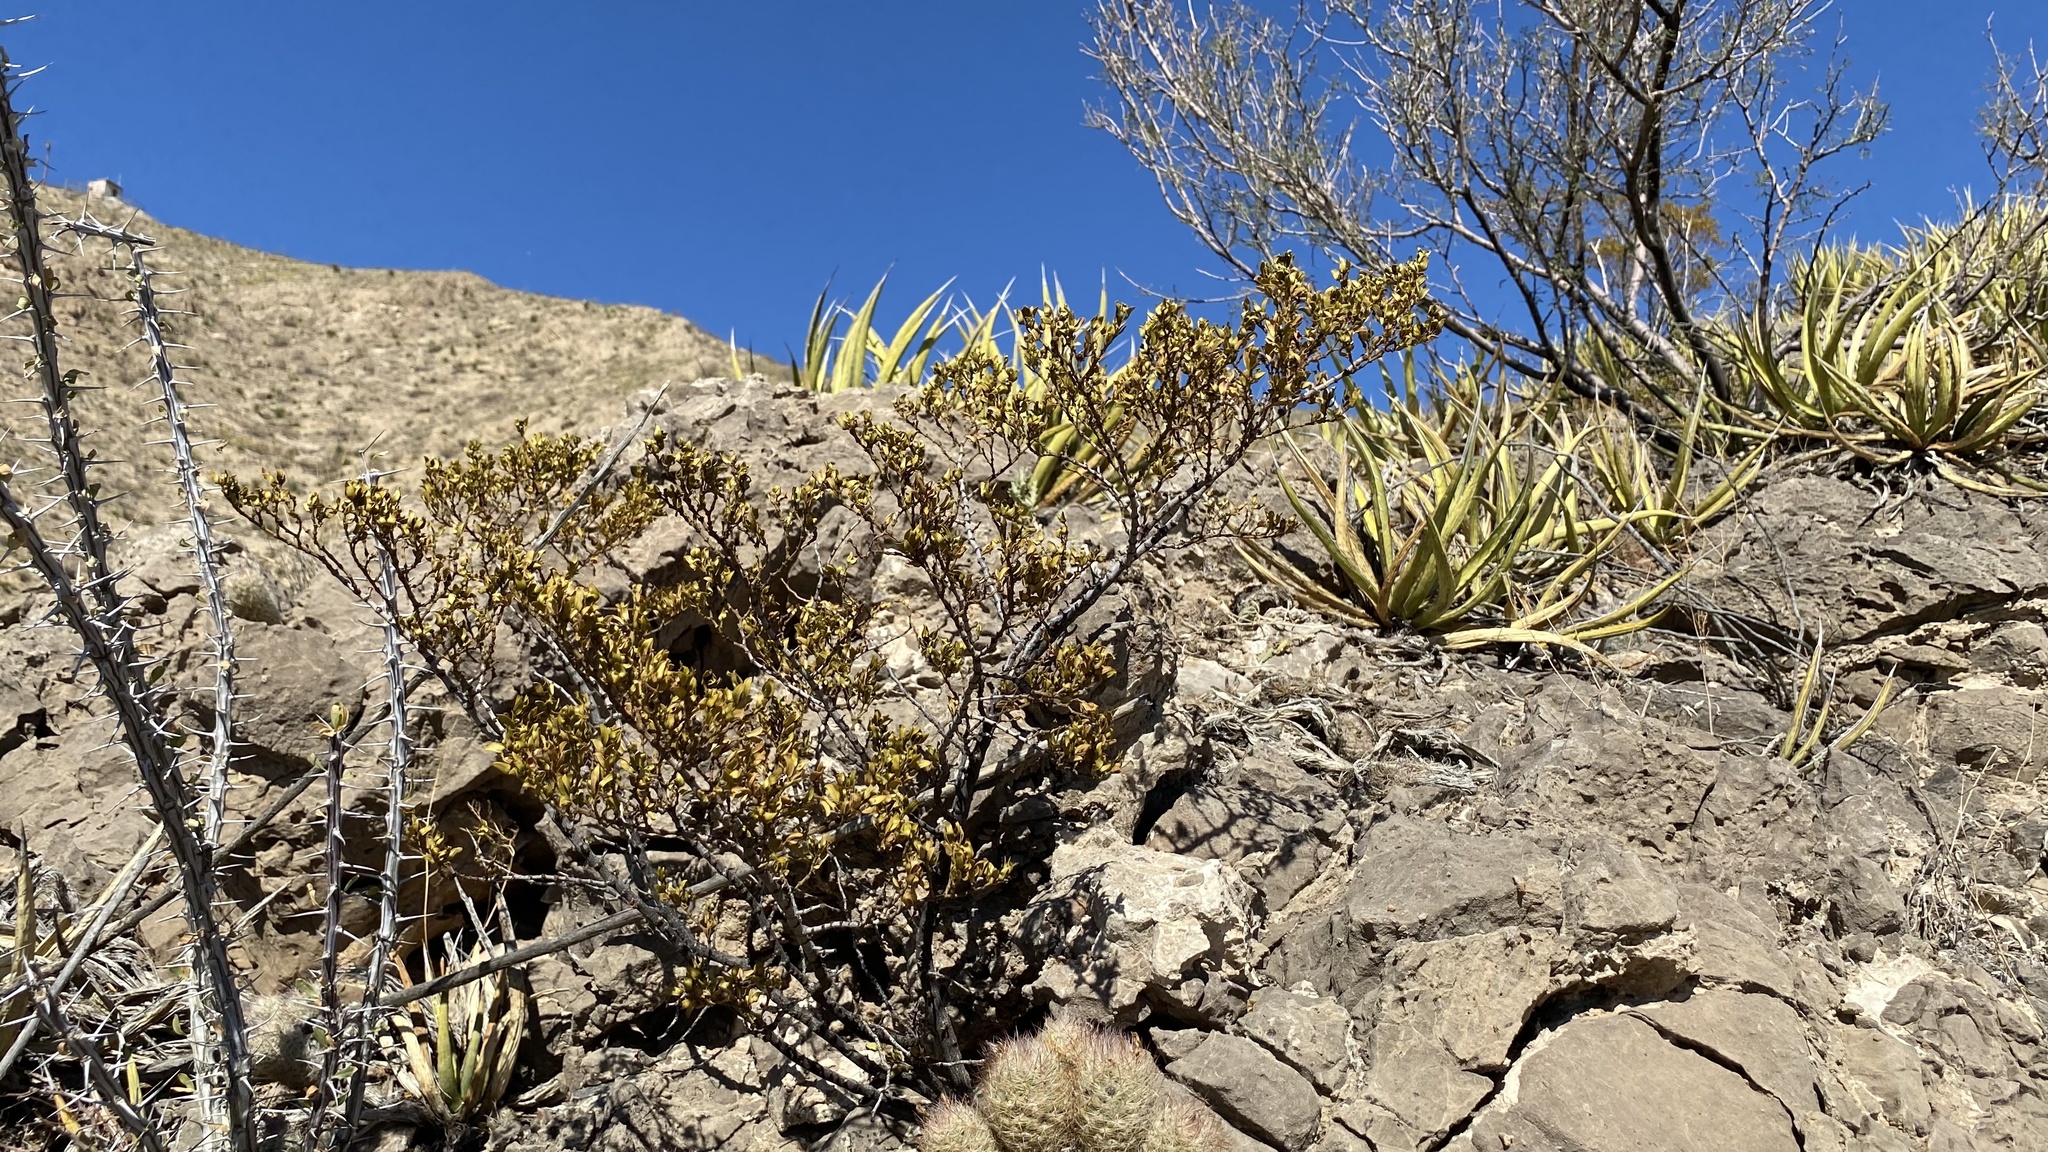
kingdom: Plantae
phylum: Tracheophyta
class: Magnoliopsida
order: Zygophyllales
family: Zygophyllaceae
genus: Larrea
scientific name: Larrea tridentata
